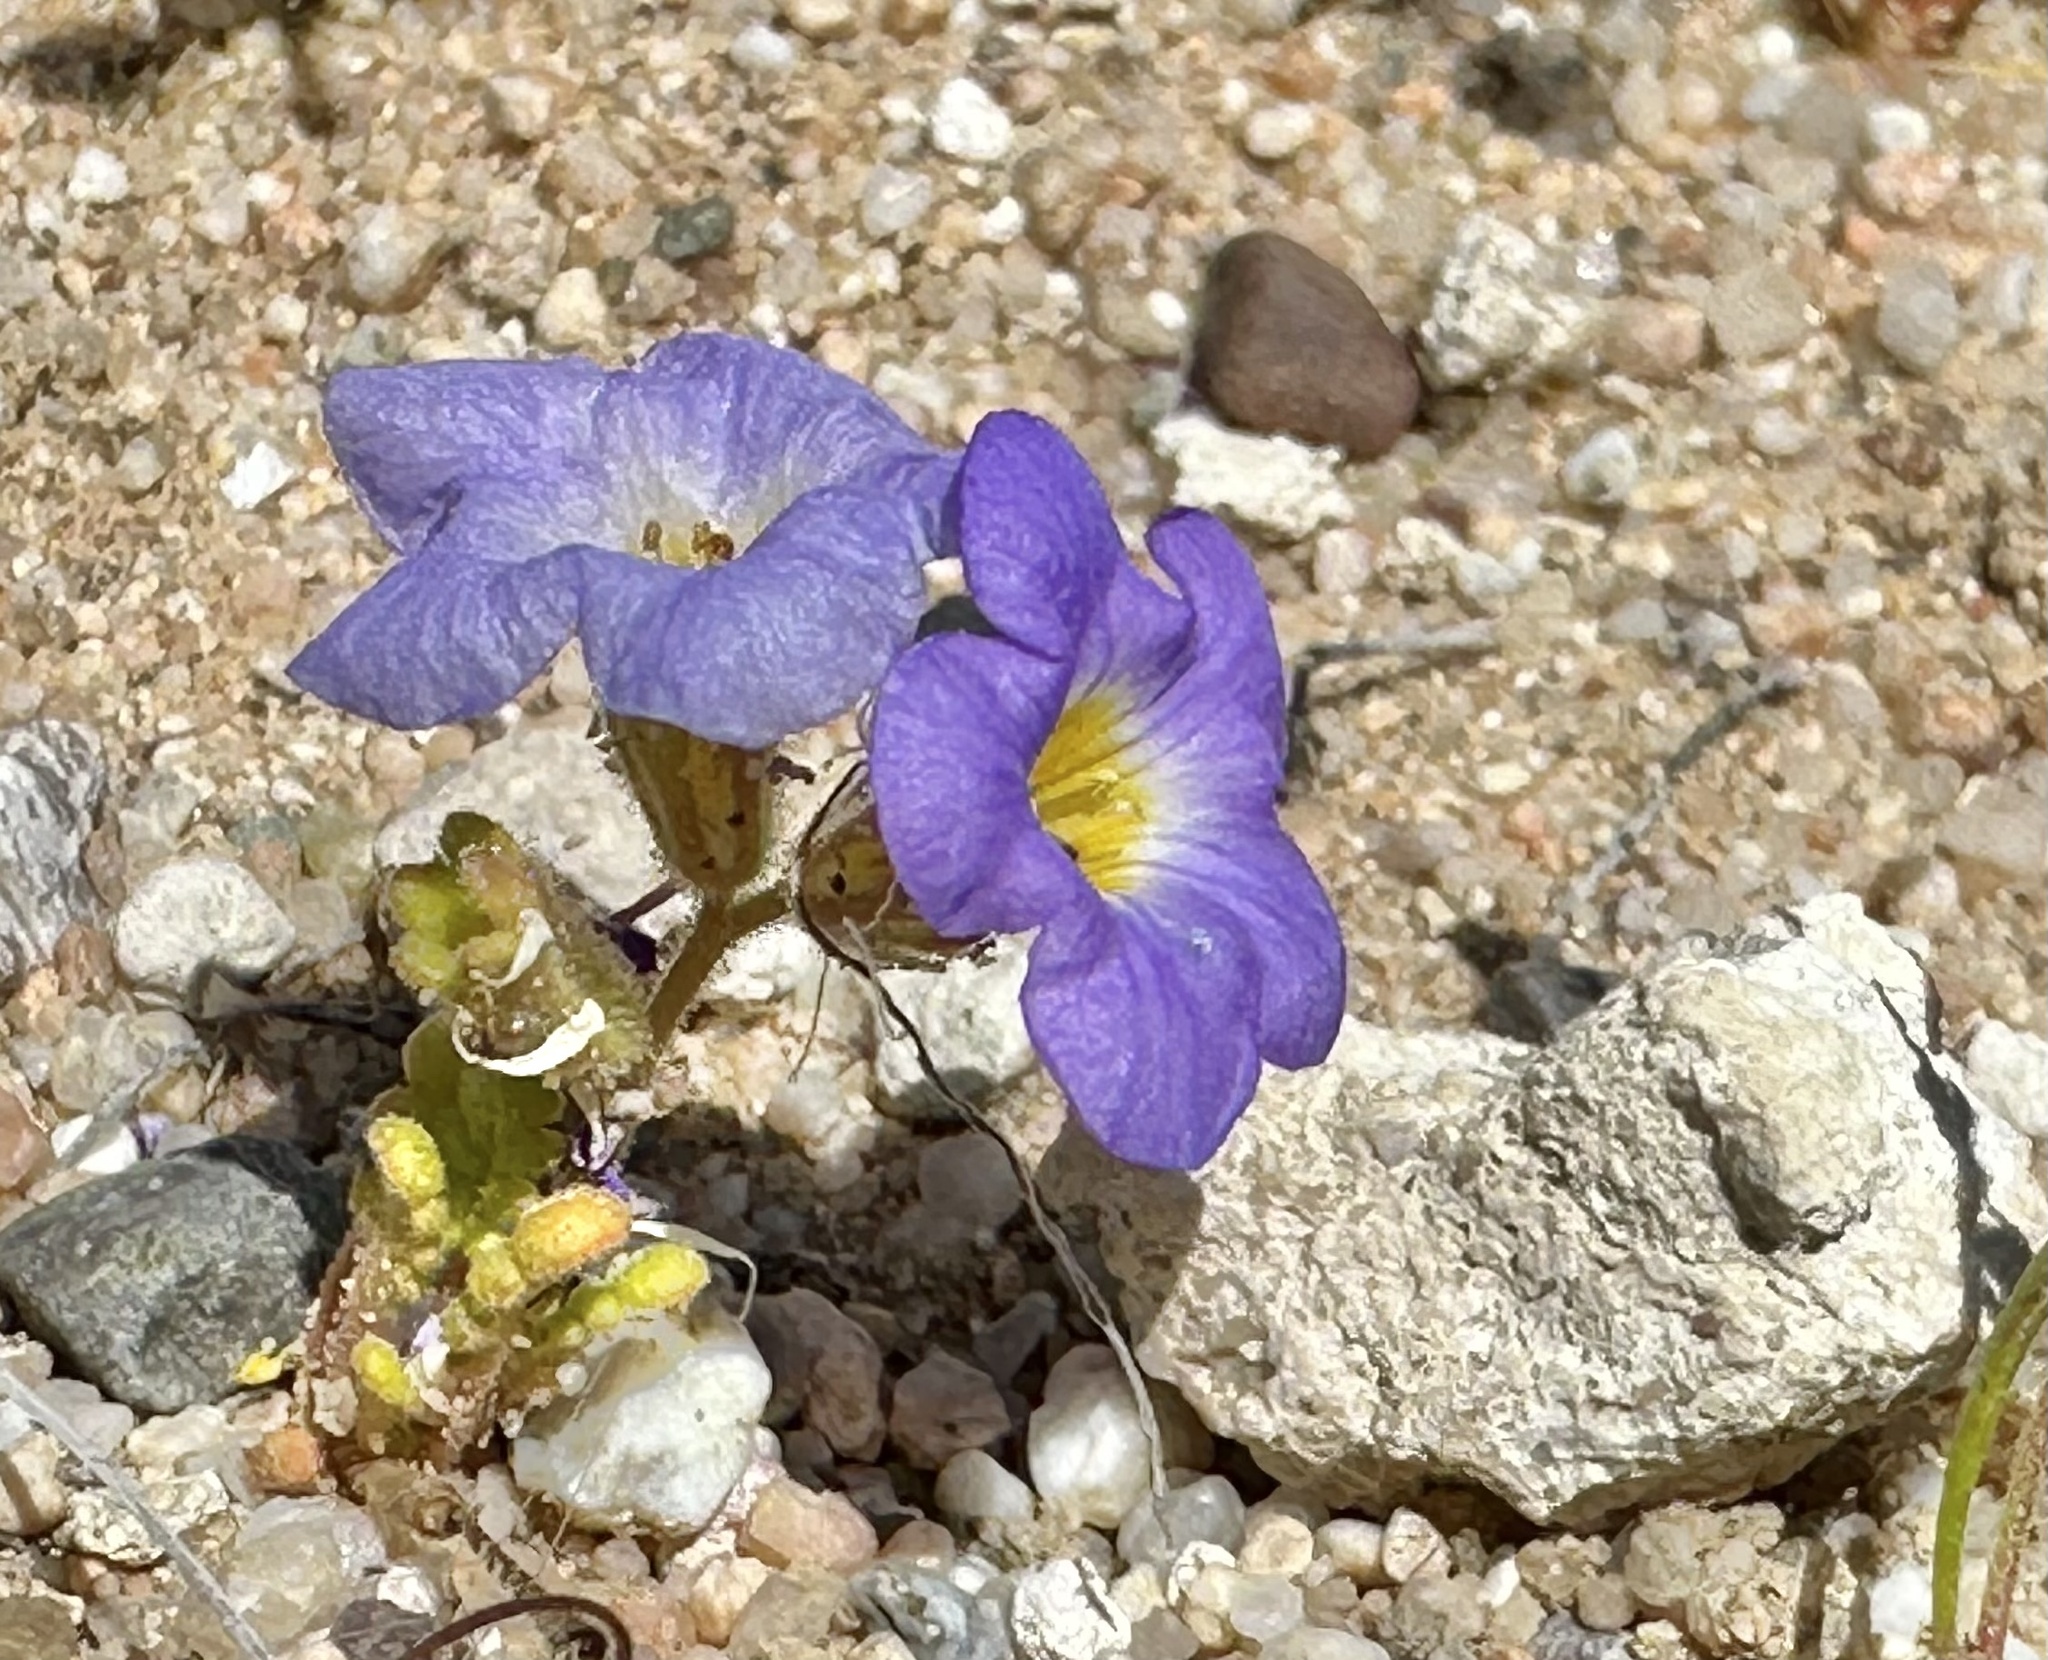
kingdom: Plantae
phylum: Tracheophyta
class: Magnoliopsida
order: Boraginales
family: Hydrophyllaceae
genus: Phacelia
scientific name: Phacelia fremontii
